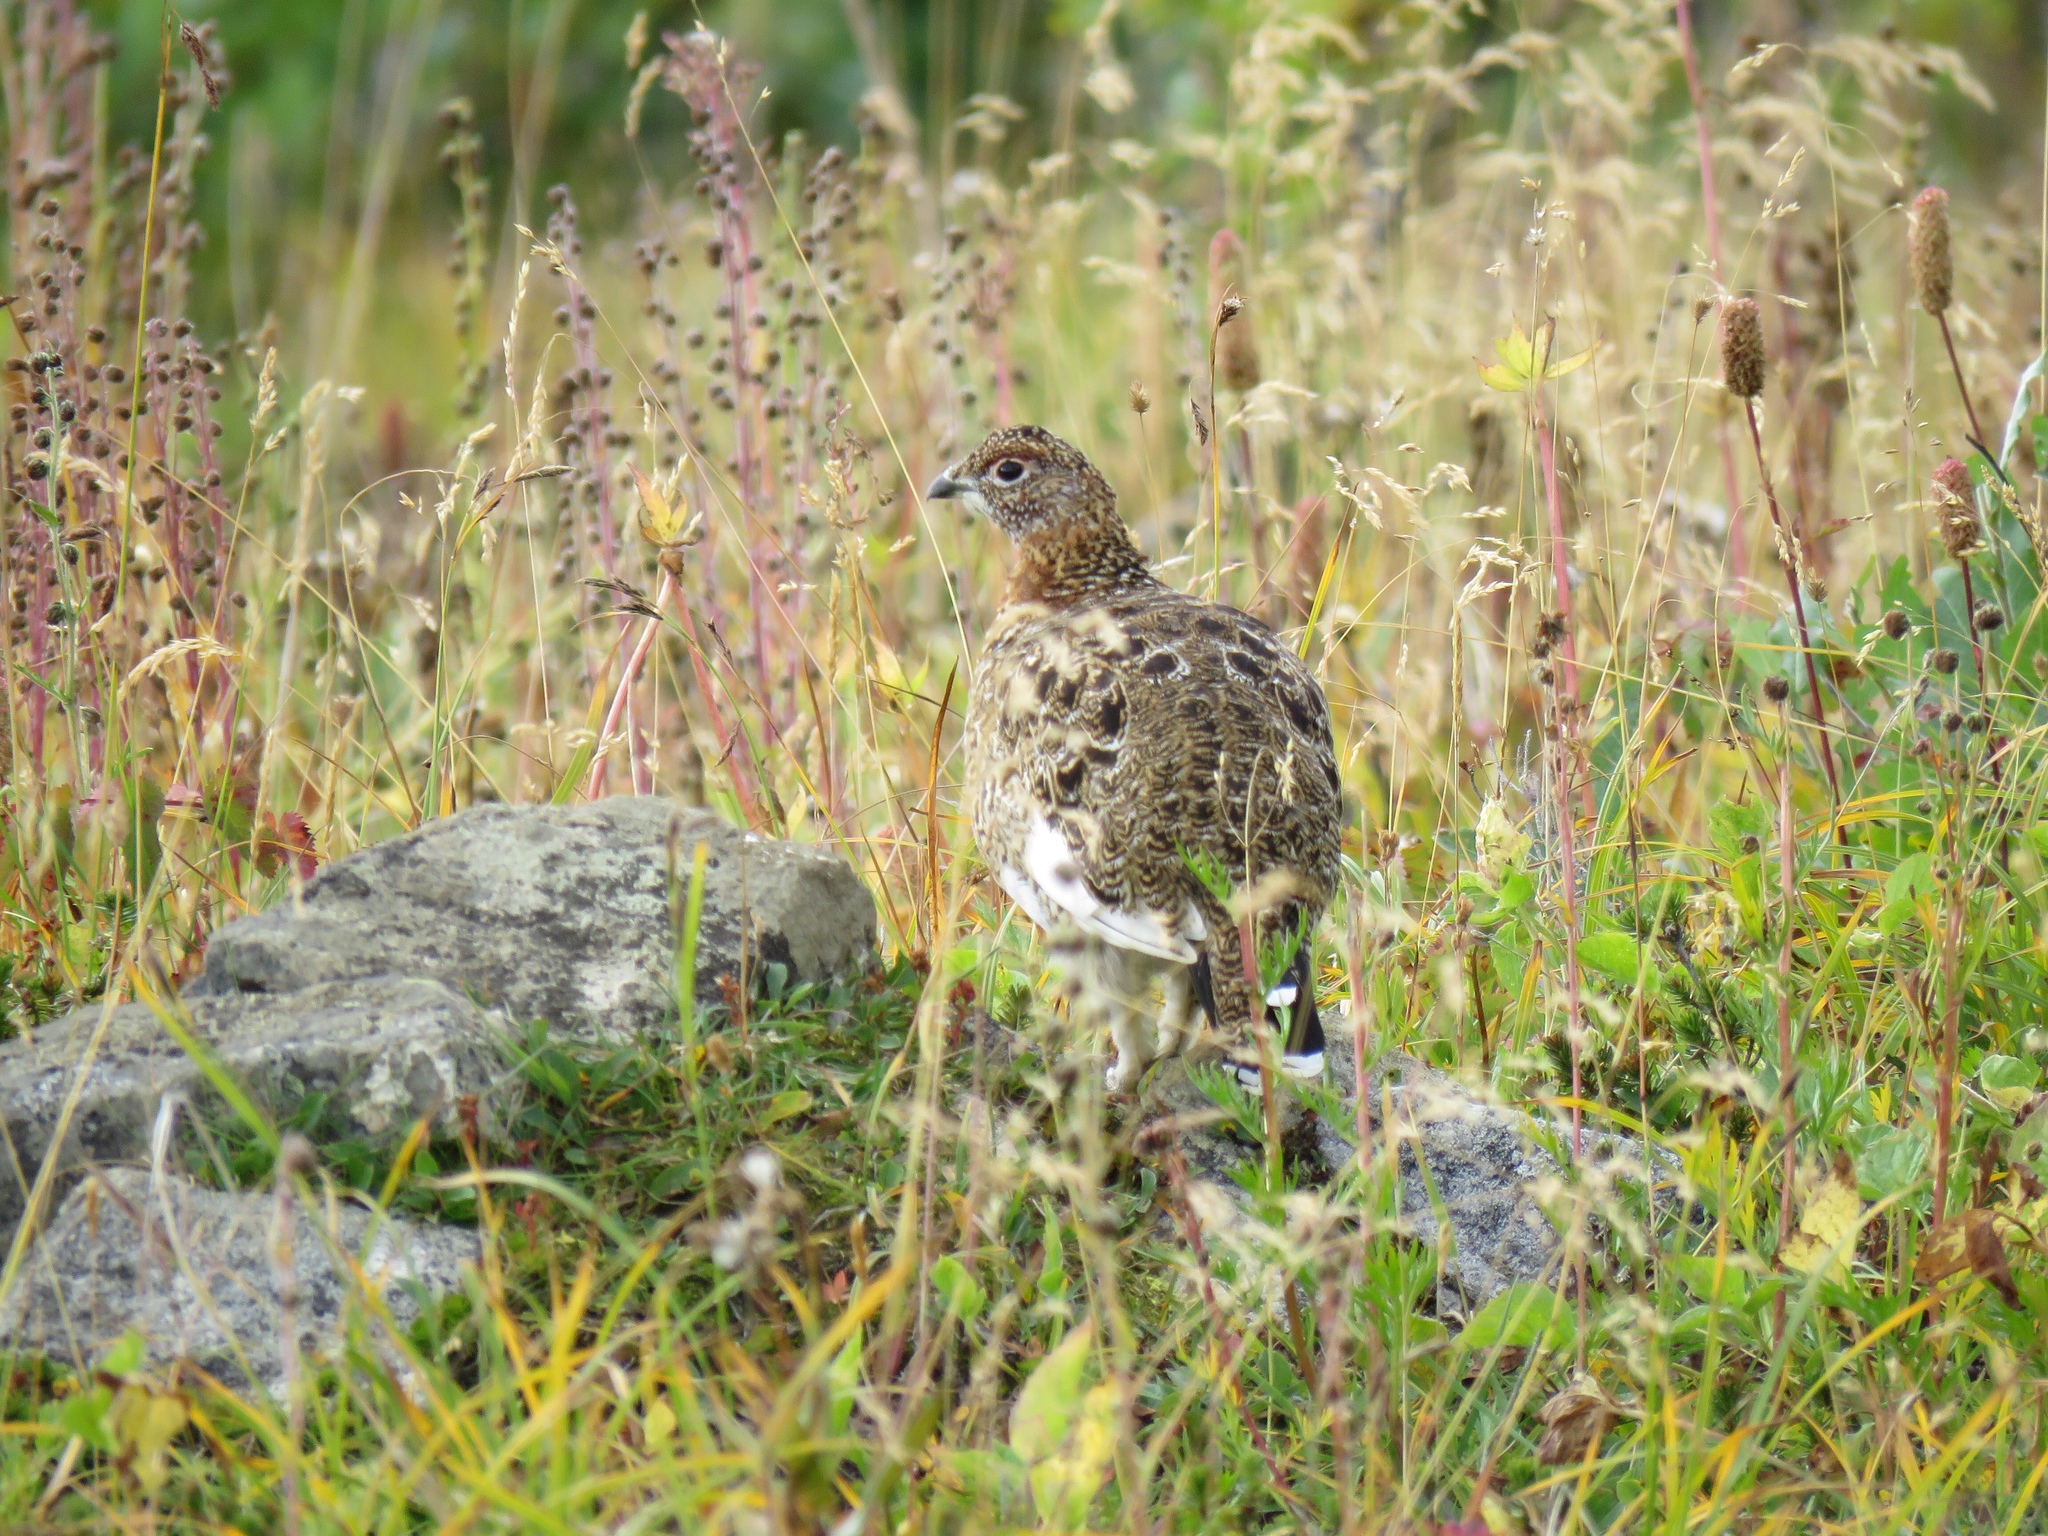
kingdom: Animalia
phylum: Chordata
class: Aves
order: Galliformes
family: Phasianidae
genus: Lagopus
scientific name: Lagopus lagopus
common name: Willow ptarmigan
